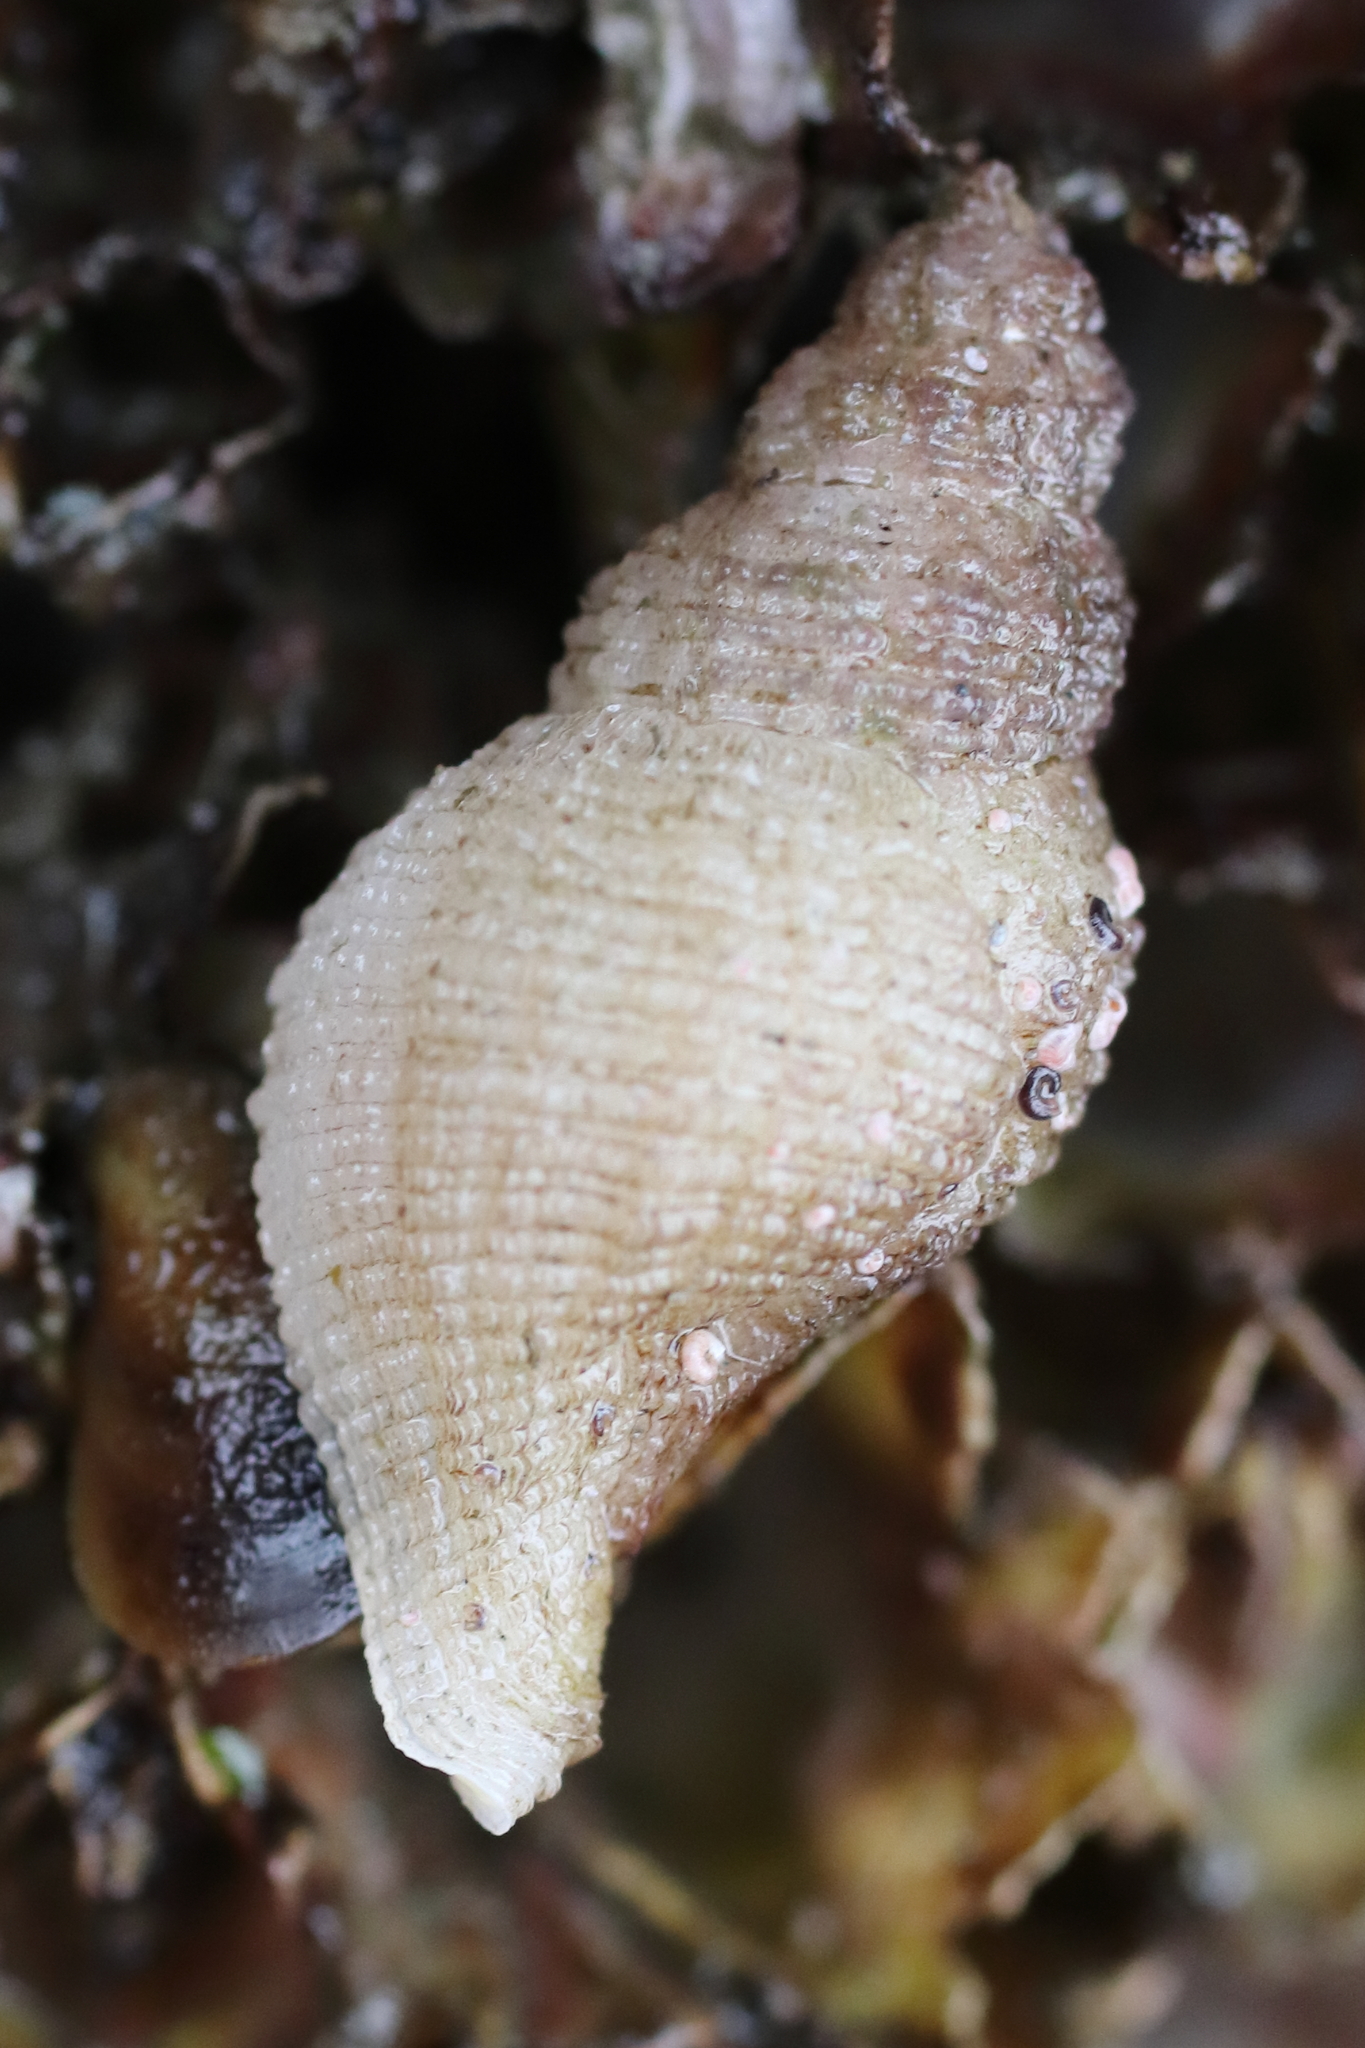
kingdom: Animalia
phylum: Mollusca
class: Gastropoda
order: Neogastropoda
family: Muricidae
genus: Scabrotrophon
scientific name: Scabrotrophon maltzani
